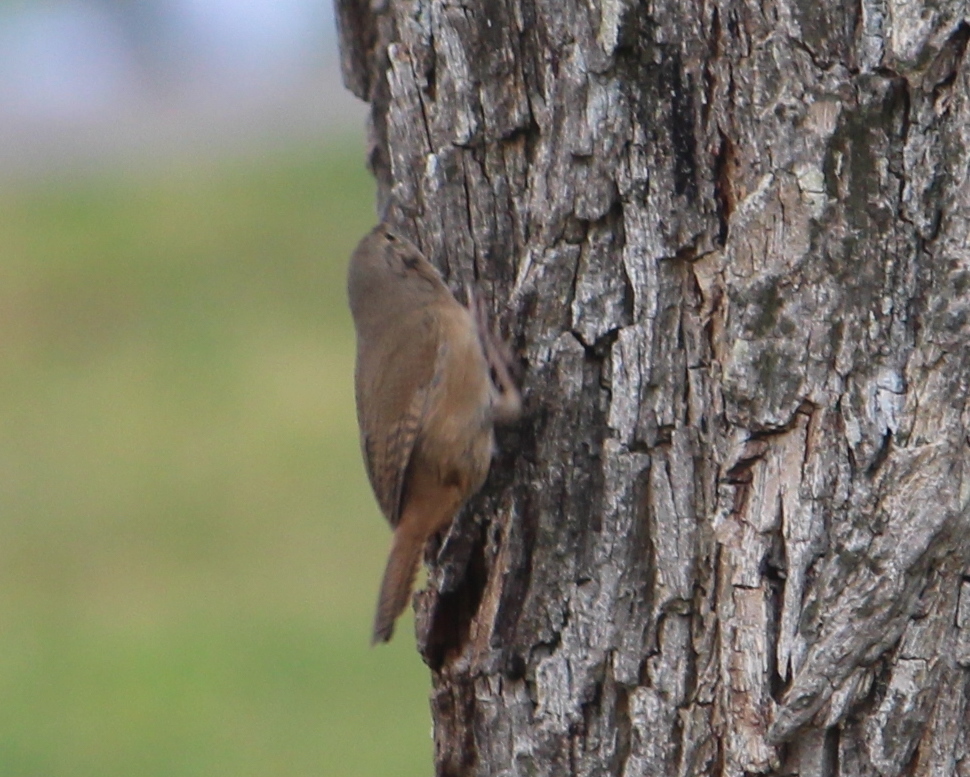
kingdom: Animalia
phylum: Chordata
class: Aves
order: Passeriformes
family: Troglodytidae
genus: Troglodytes
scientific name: Troglodytes aedon
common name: House wren
